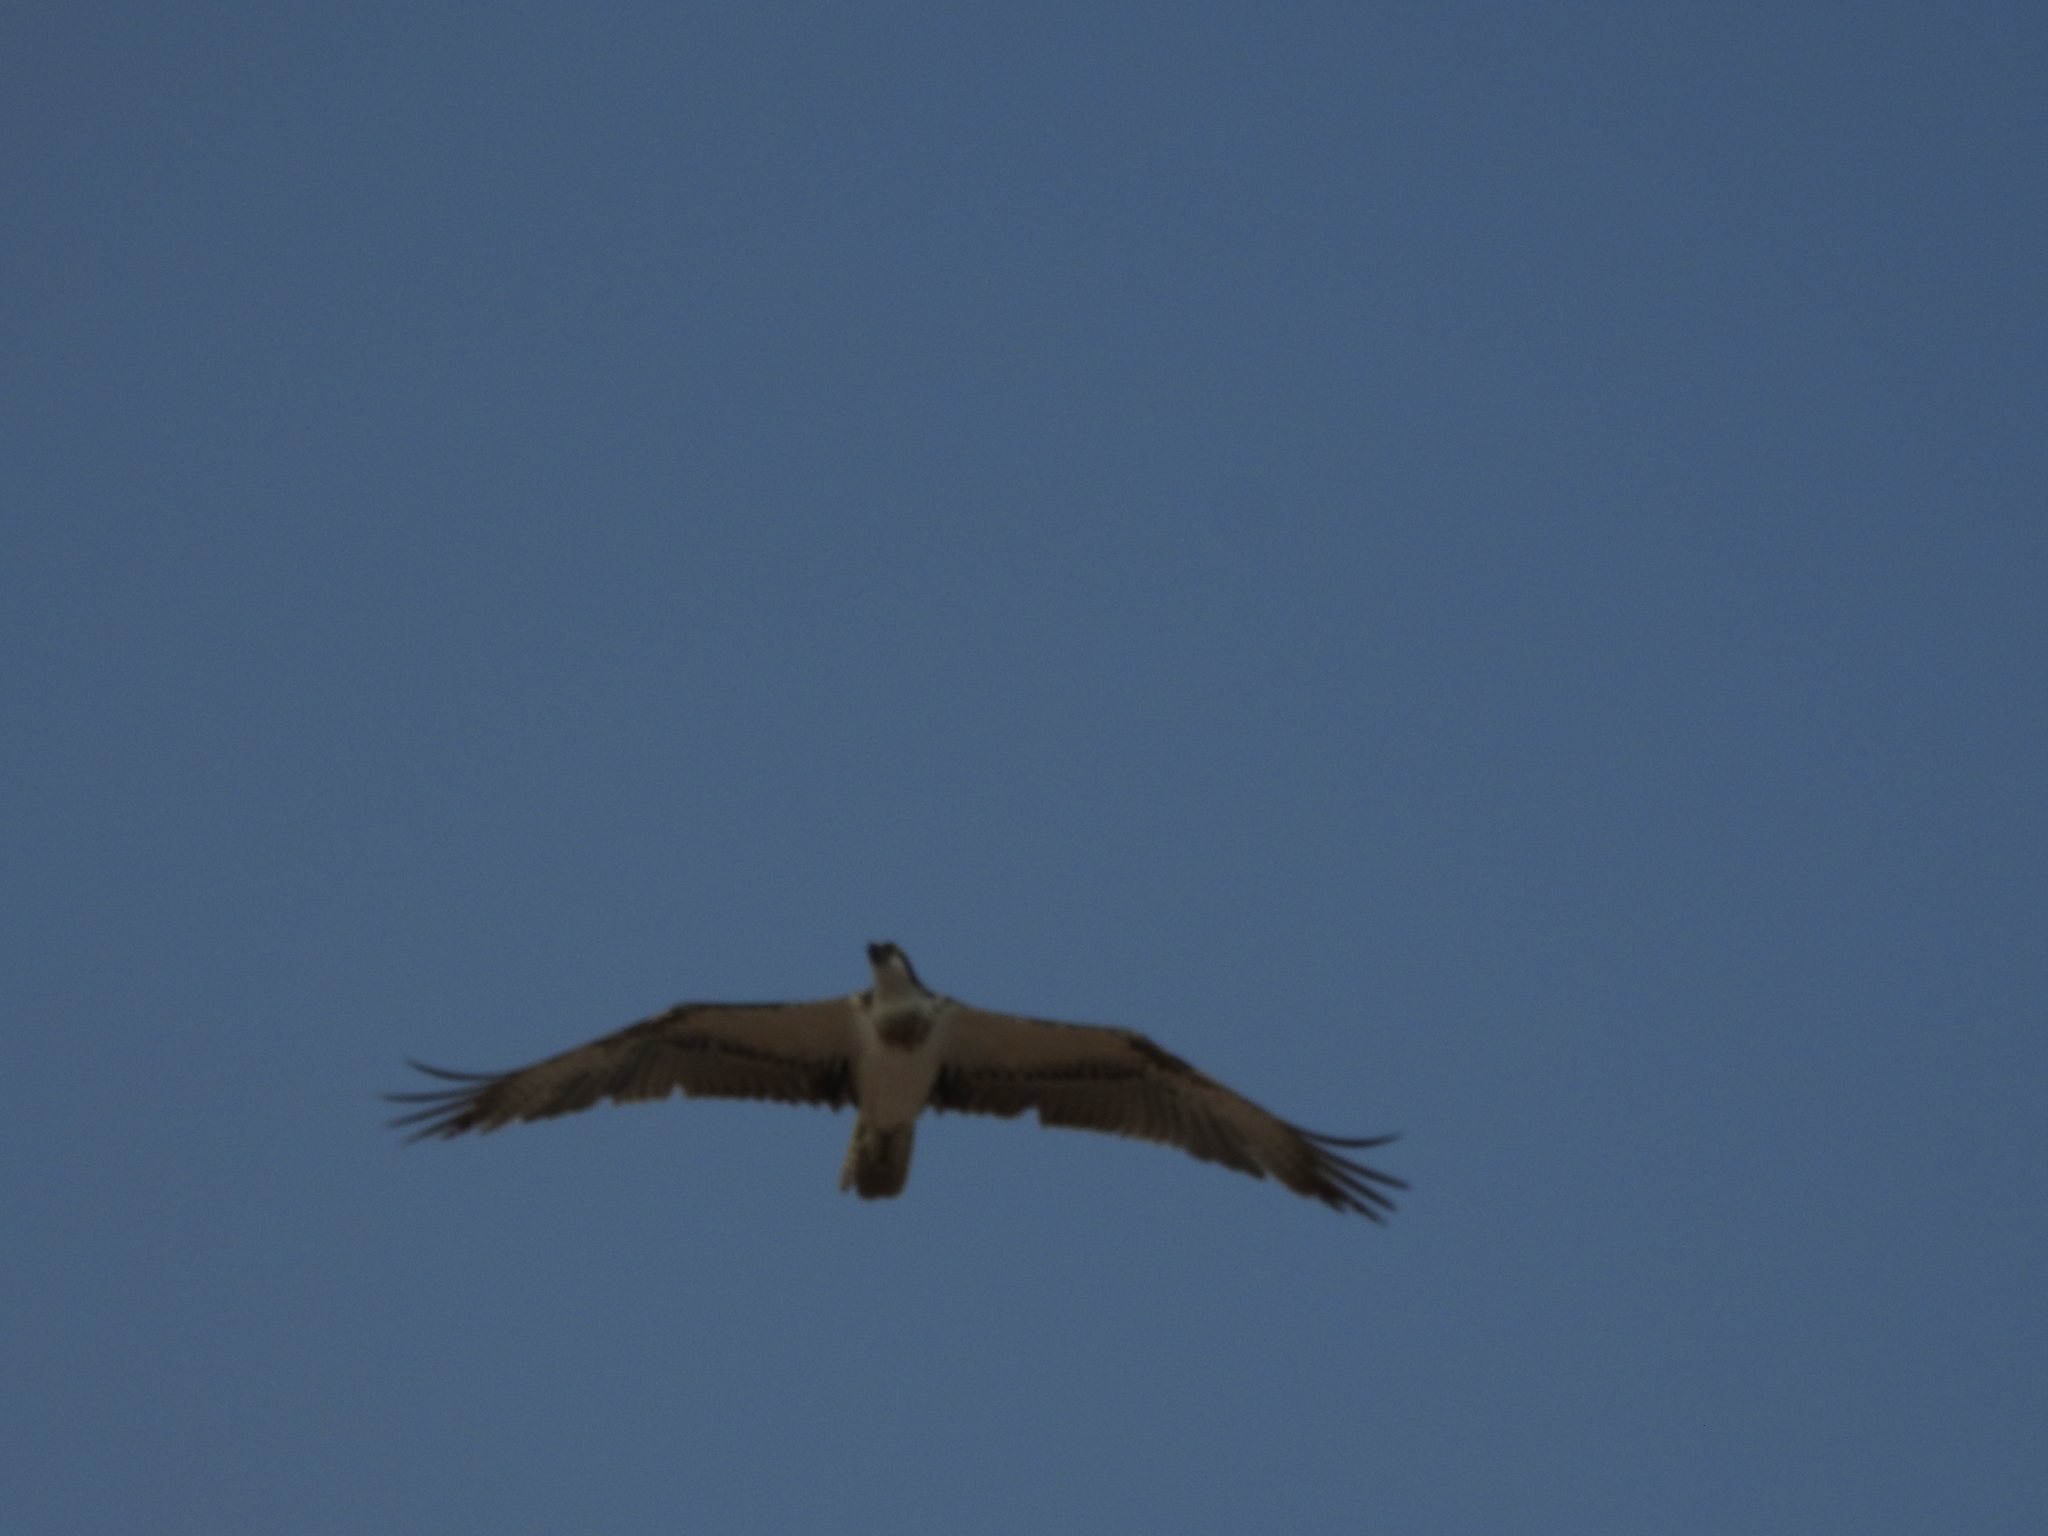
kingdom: Animalia
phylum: Chordata
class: Aves
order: Accipitriformes
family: Pandionidae
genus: Pandion
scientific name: Pandion haliaetus
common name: Osprey
